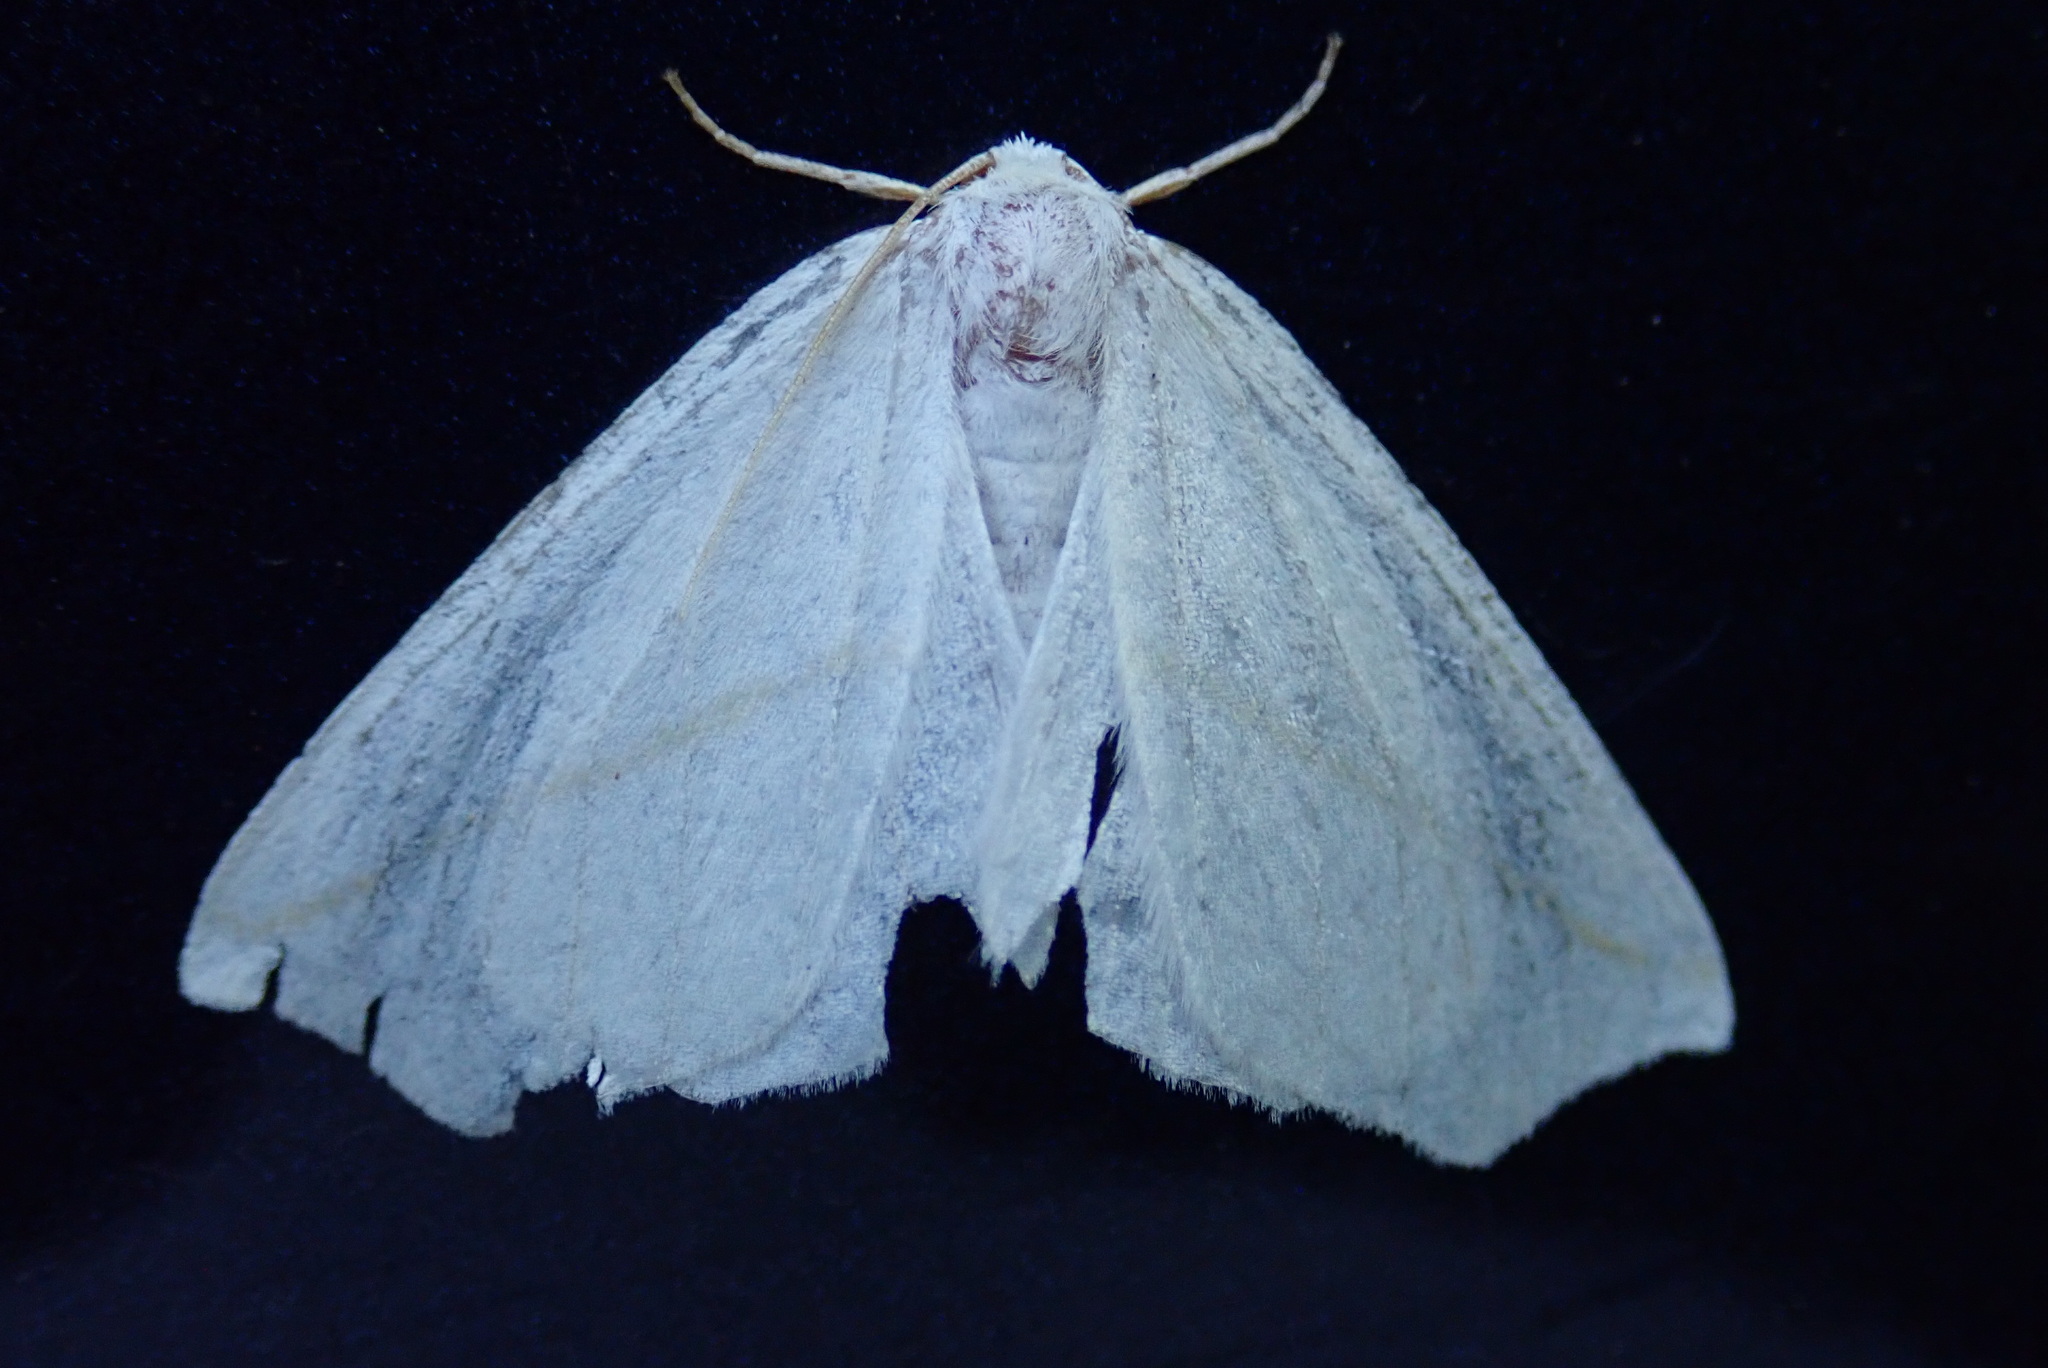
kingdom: Animalia
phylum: Arthropoda
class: Insecta
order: Lepidoptera
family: Geometridae
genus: Tetracis
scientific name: Tetracis cachexiata
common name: White slant-line
